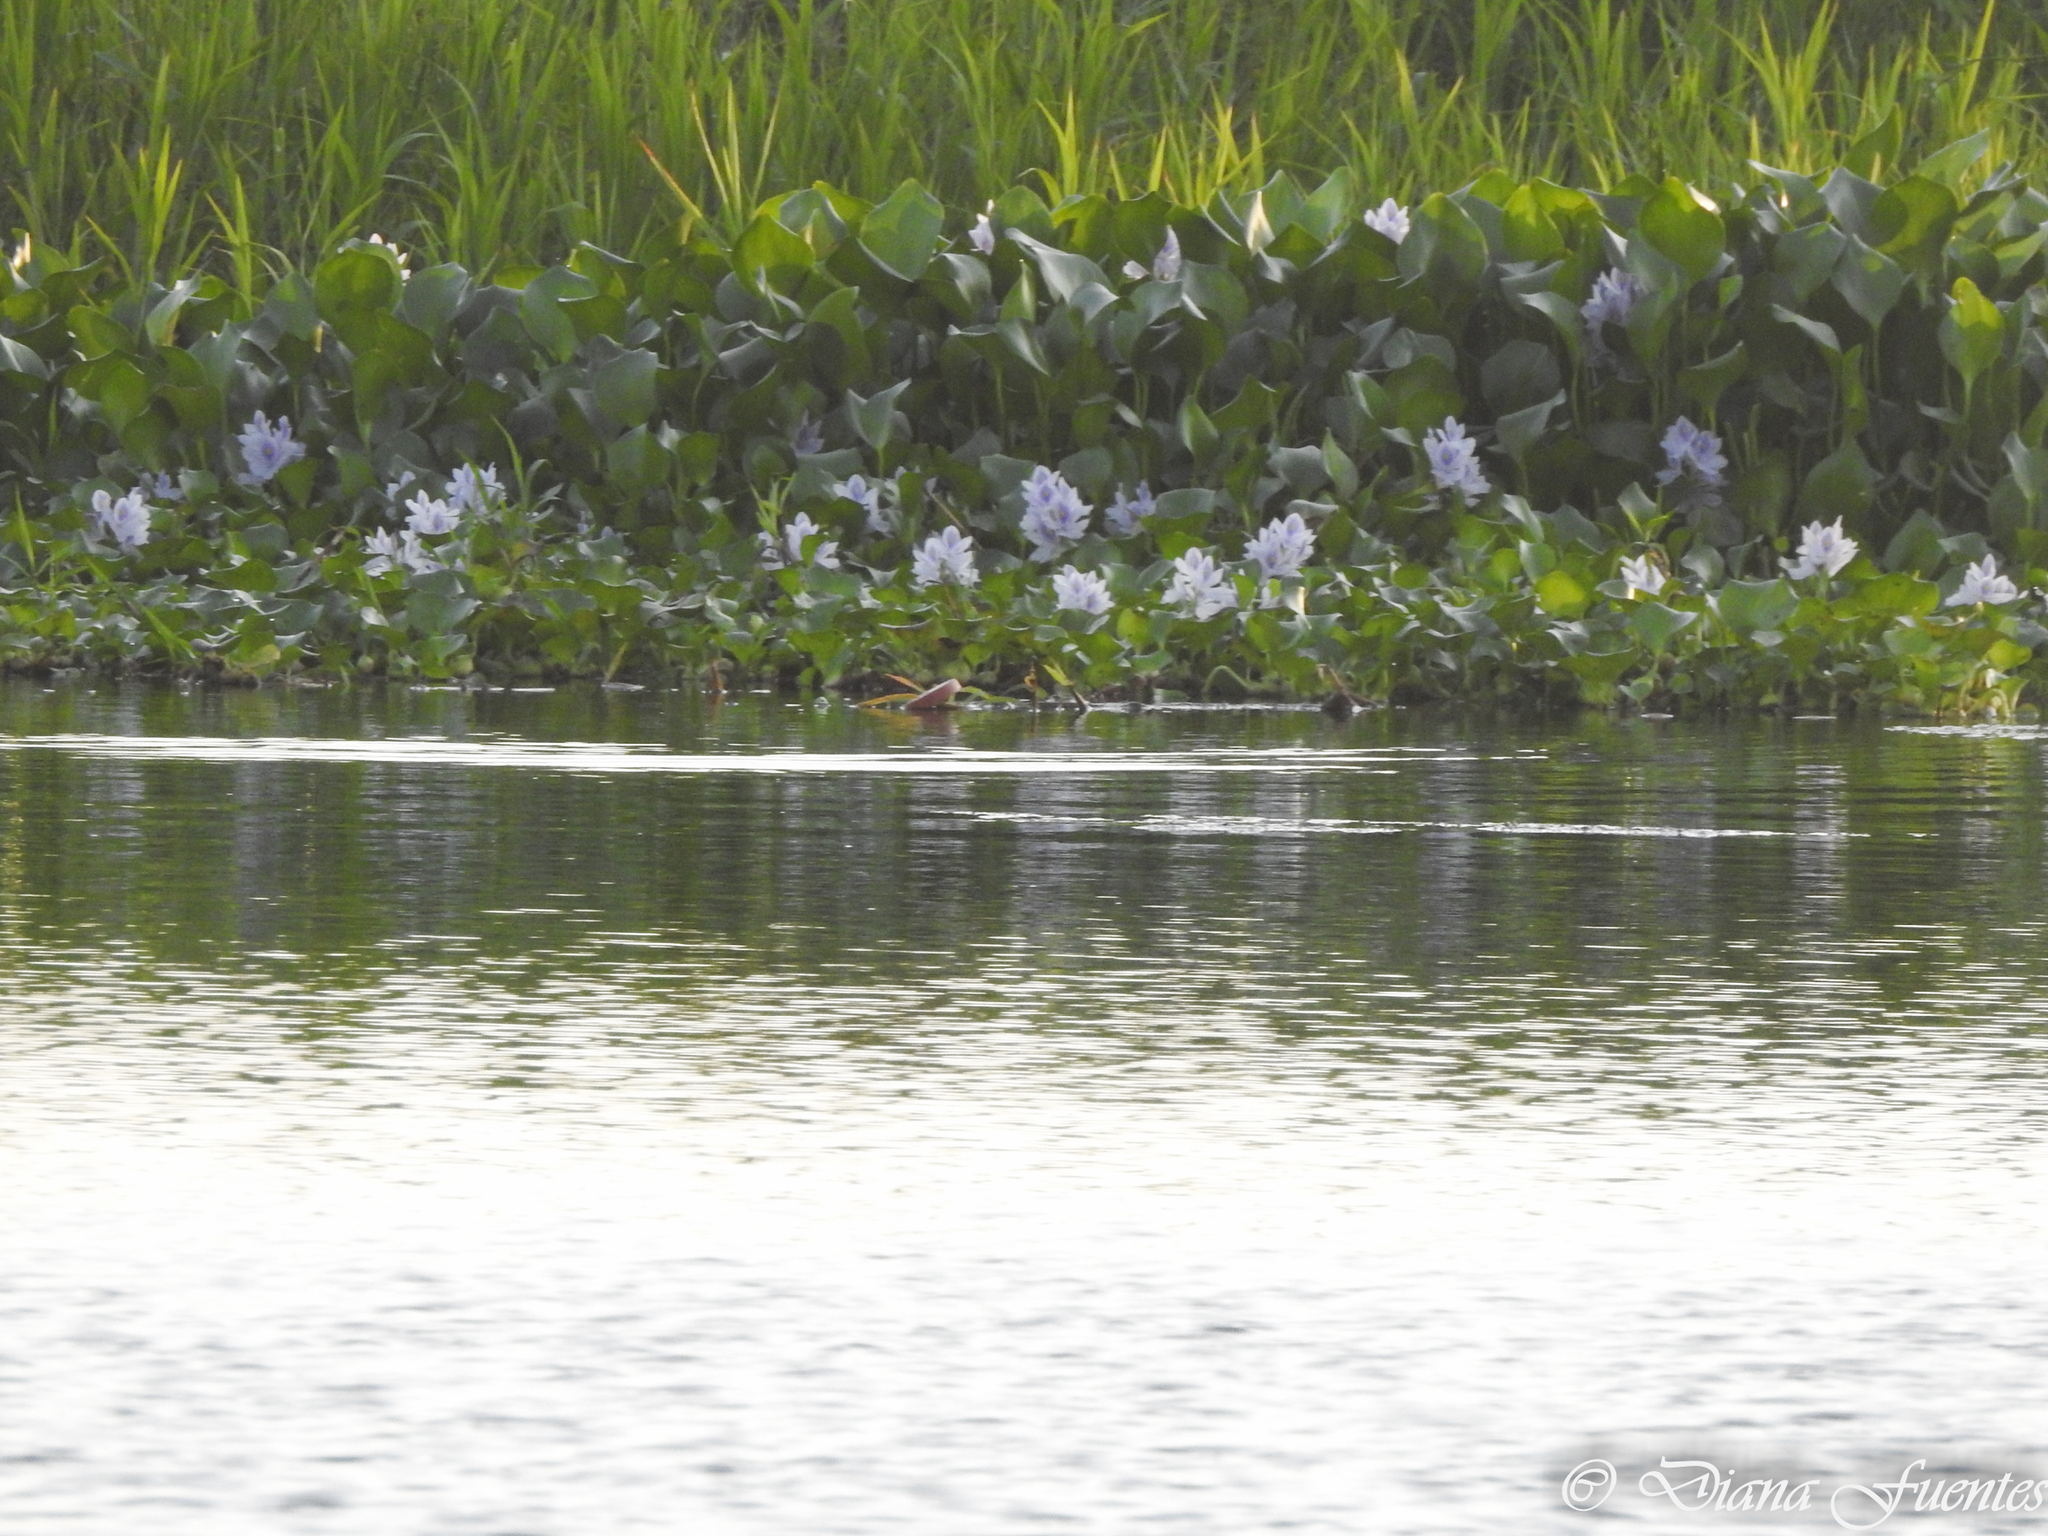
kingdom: Animalia
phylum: Chordata
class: Mammalia
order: Carnivora
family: Mustelidae
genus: Lontra
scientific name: Lontra longicaudis
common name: Neotropical otter
